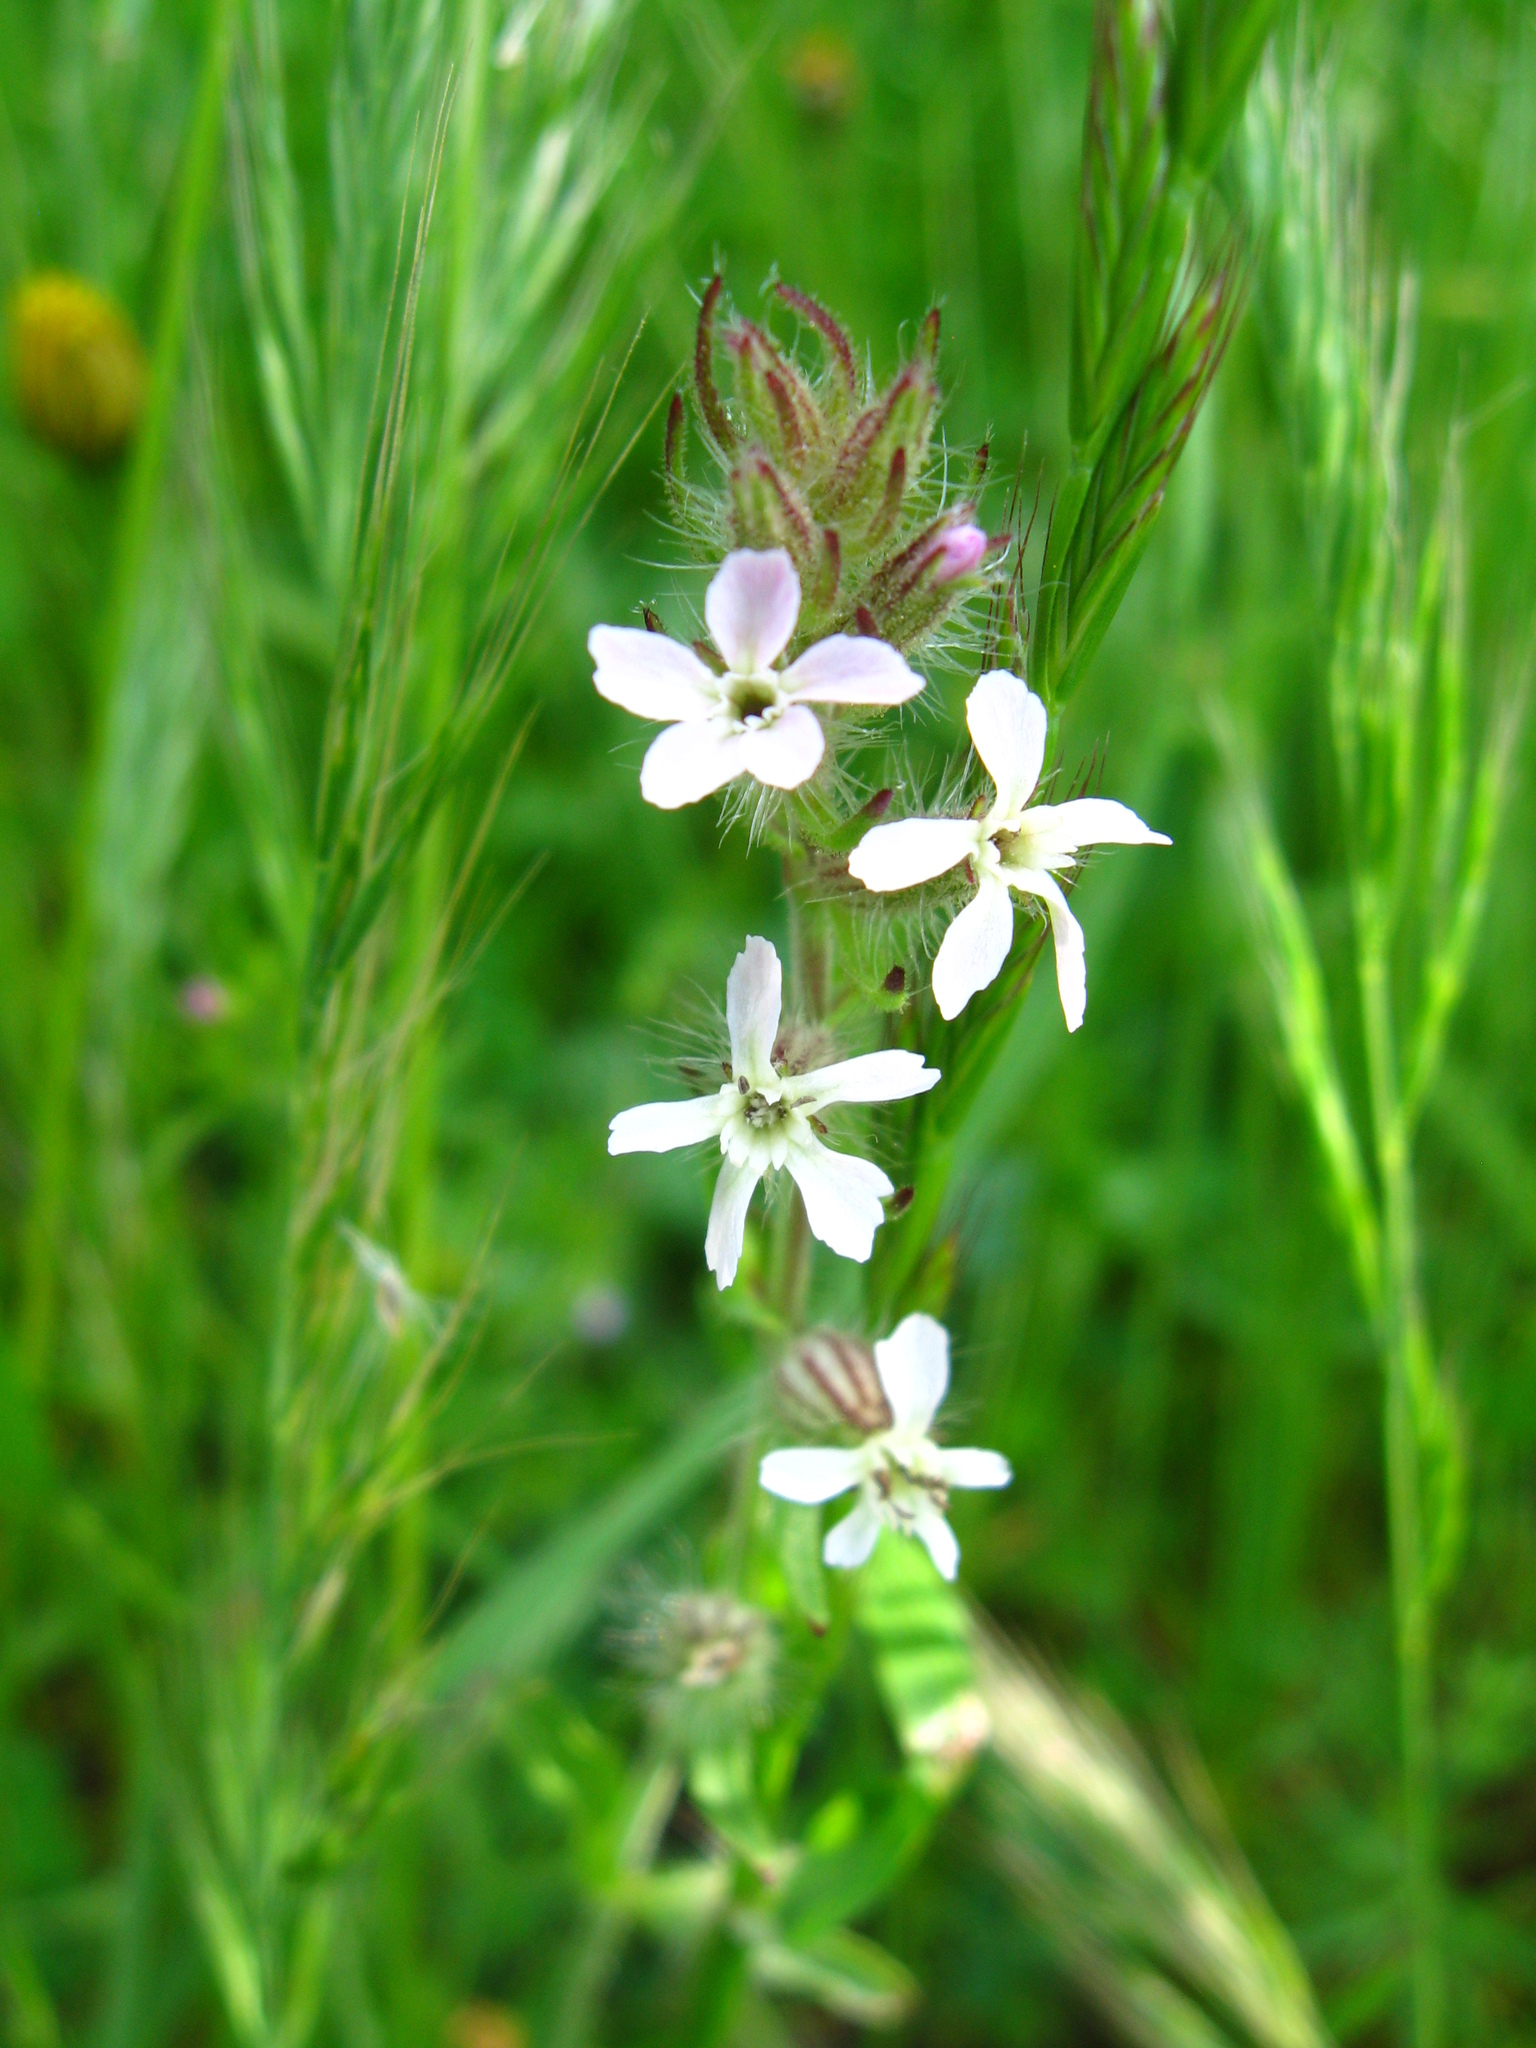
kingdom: Plantae
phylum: Tracheophyta
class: Magnoliopsida
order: Caryophyllales
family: Caryophyllaceae
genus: Silene
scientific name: Silene gallica
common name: Small-flowered catchfly
